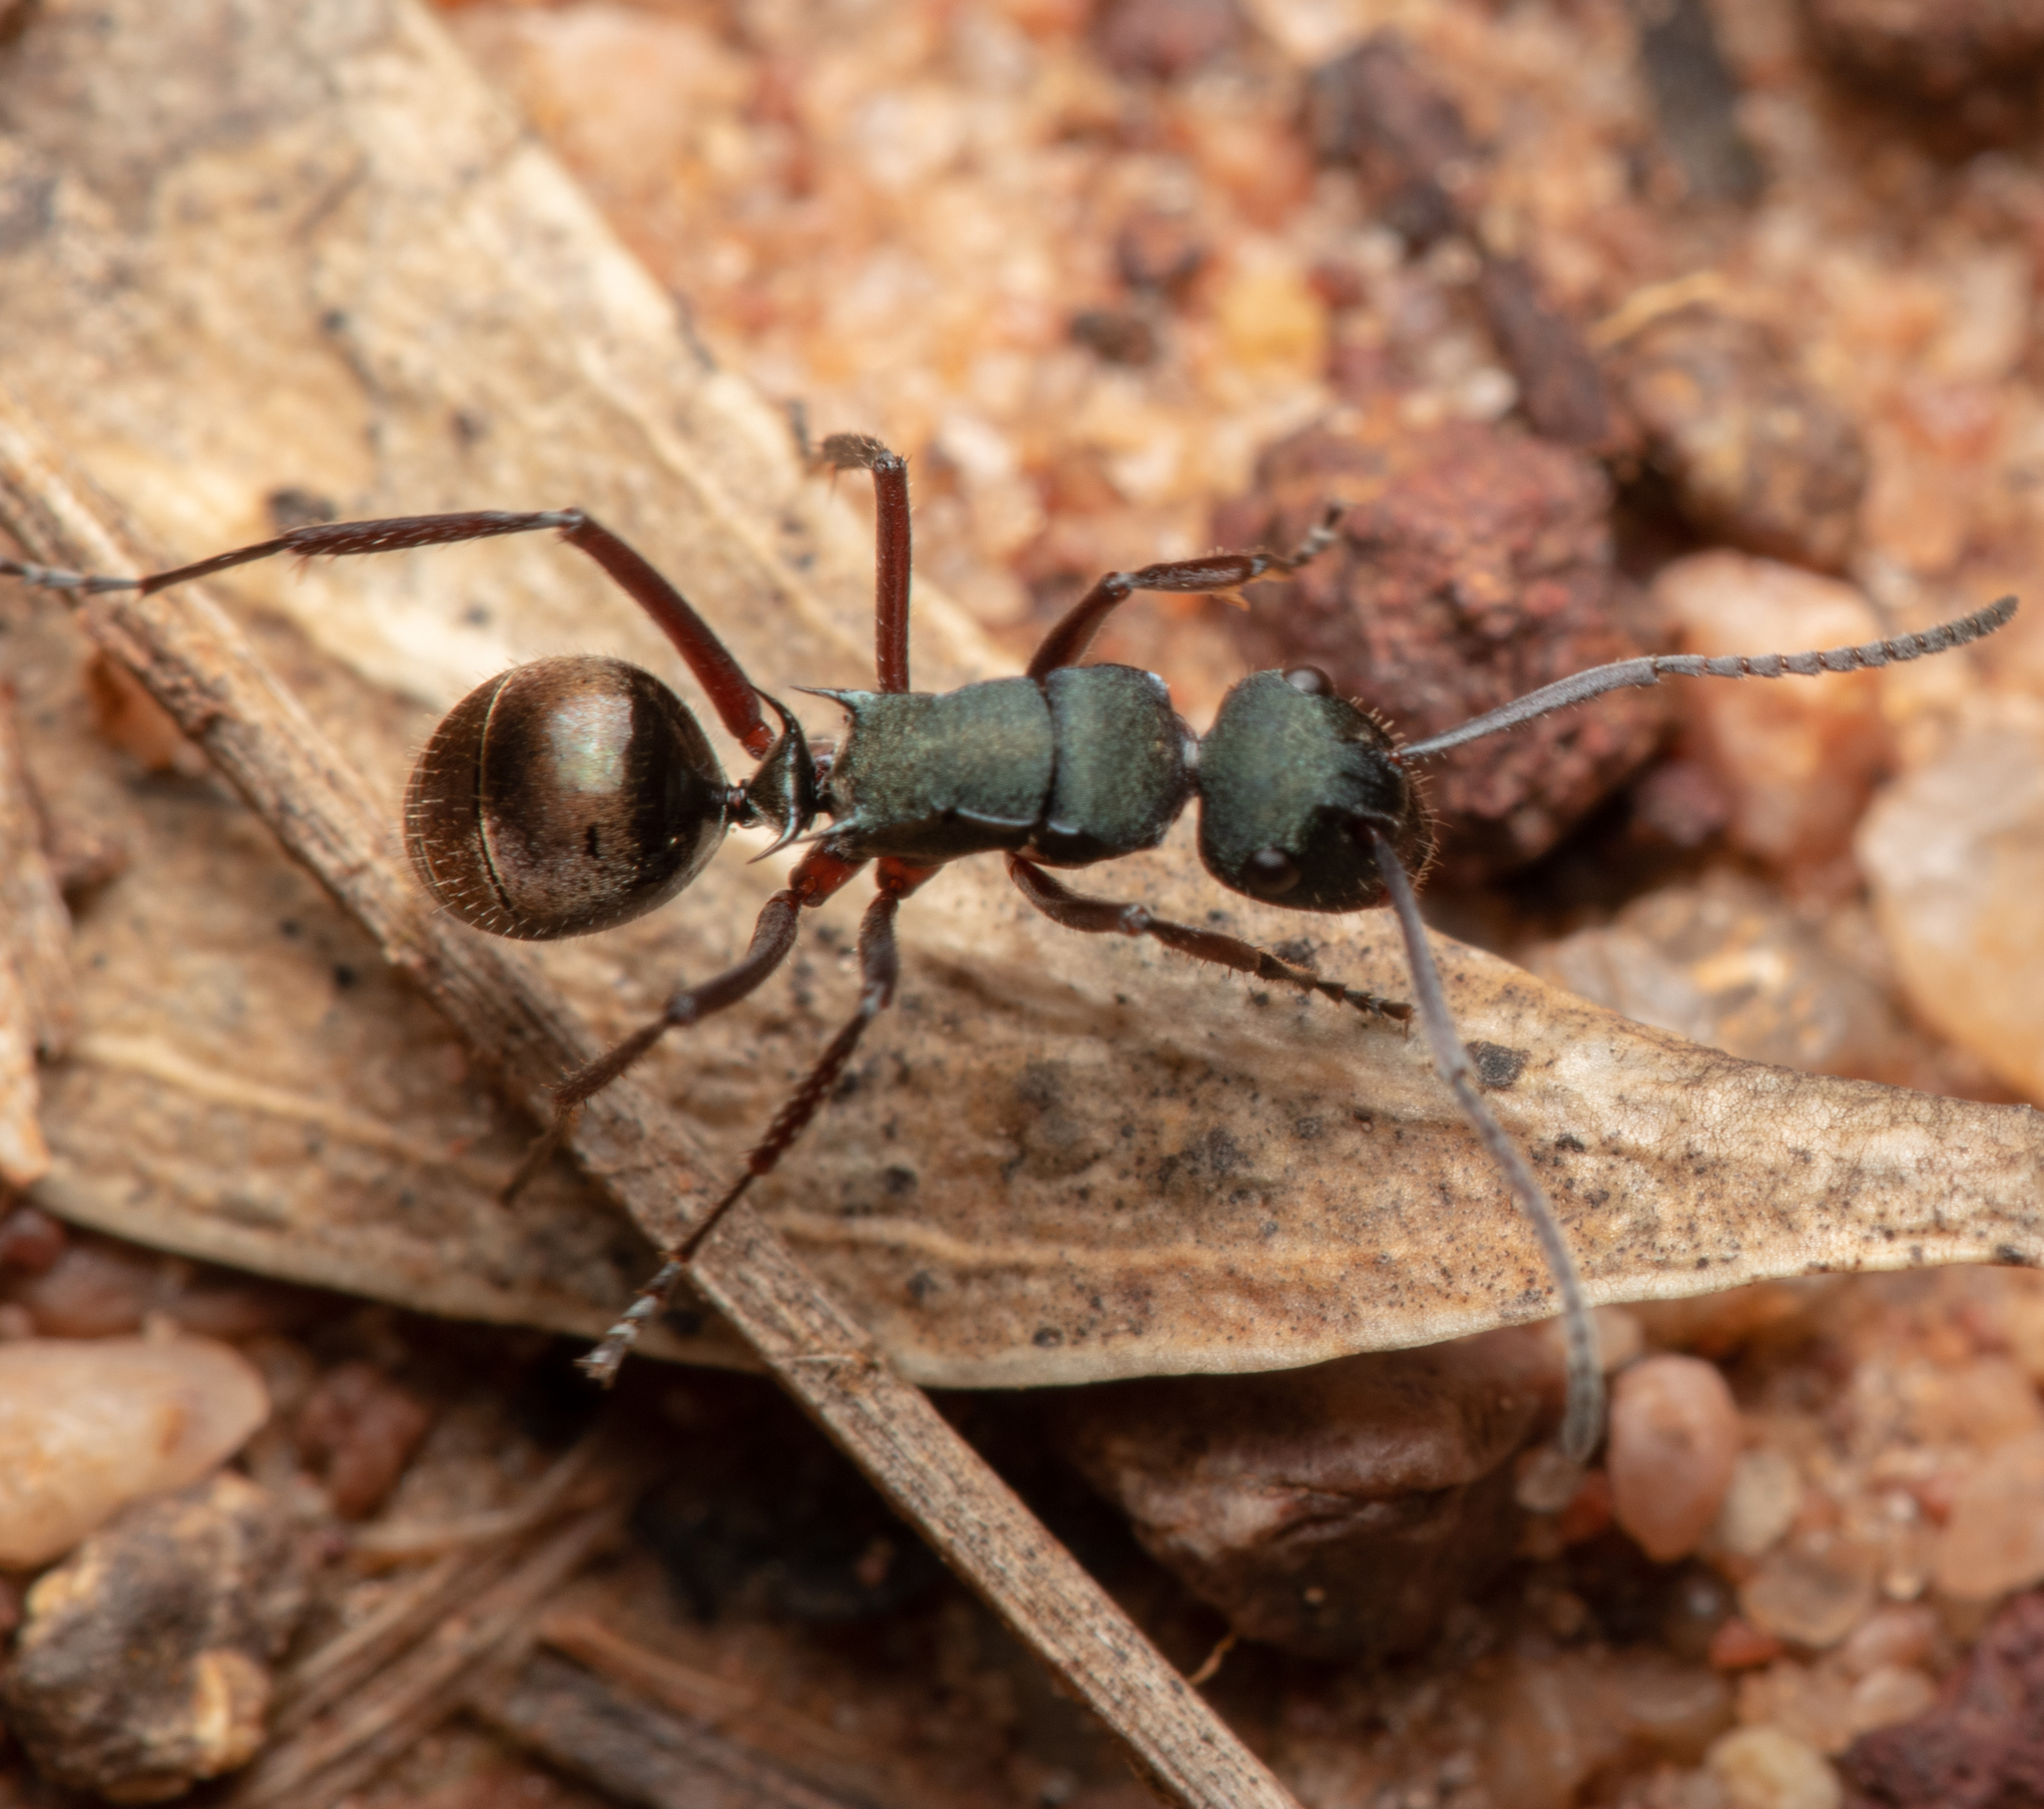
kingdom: Animalia
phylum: Arthropoda
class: Insecta
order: Hymenoptera
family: Formicidae
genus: Polyrhachis
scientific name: Polyrhachis lydiae
